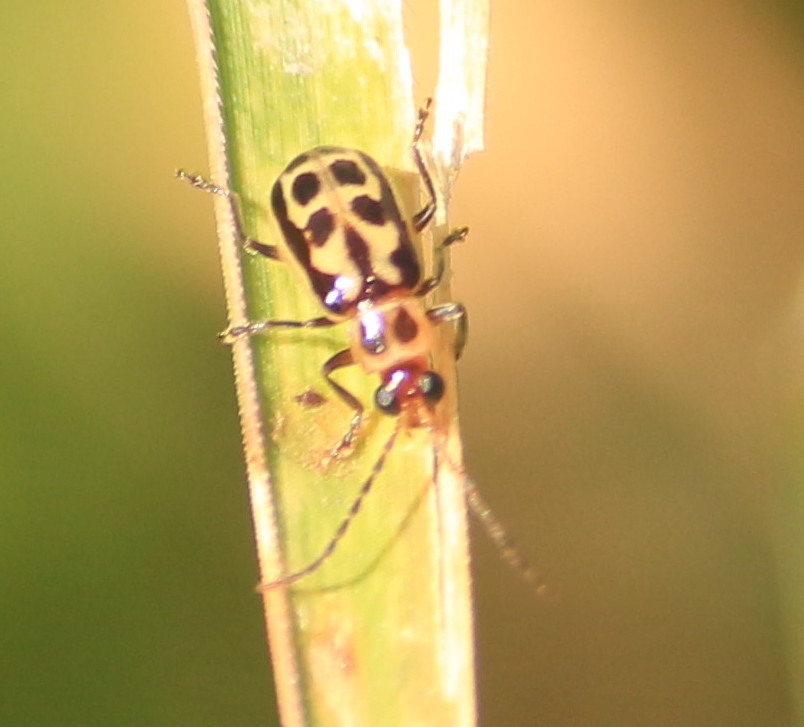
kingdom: Animalia
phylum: Arthropoda
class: Insecta
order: Coleoptera
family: Chrysomelidae
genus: Paranapiacaba
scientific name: Paranapiacaba significata
